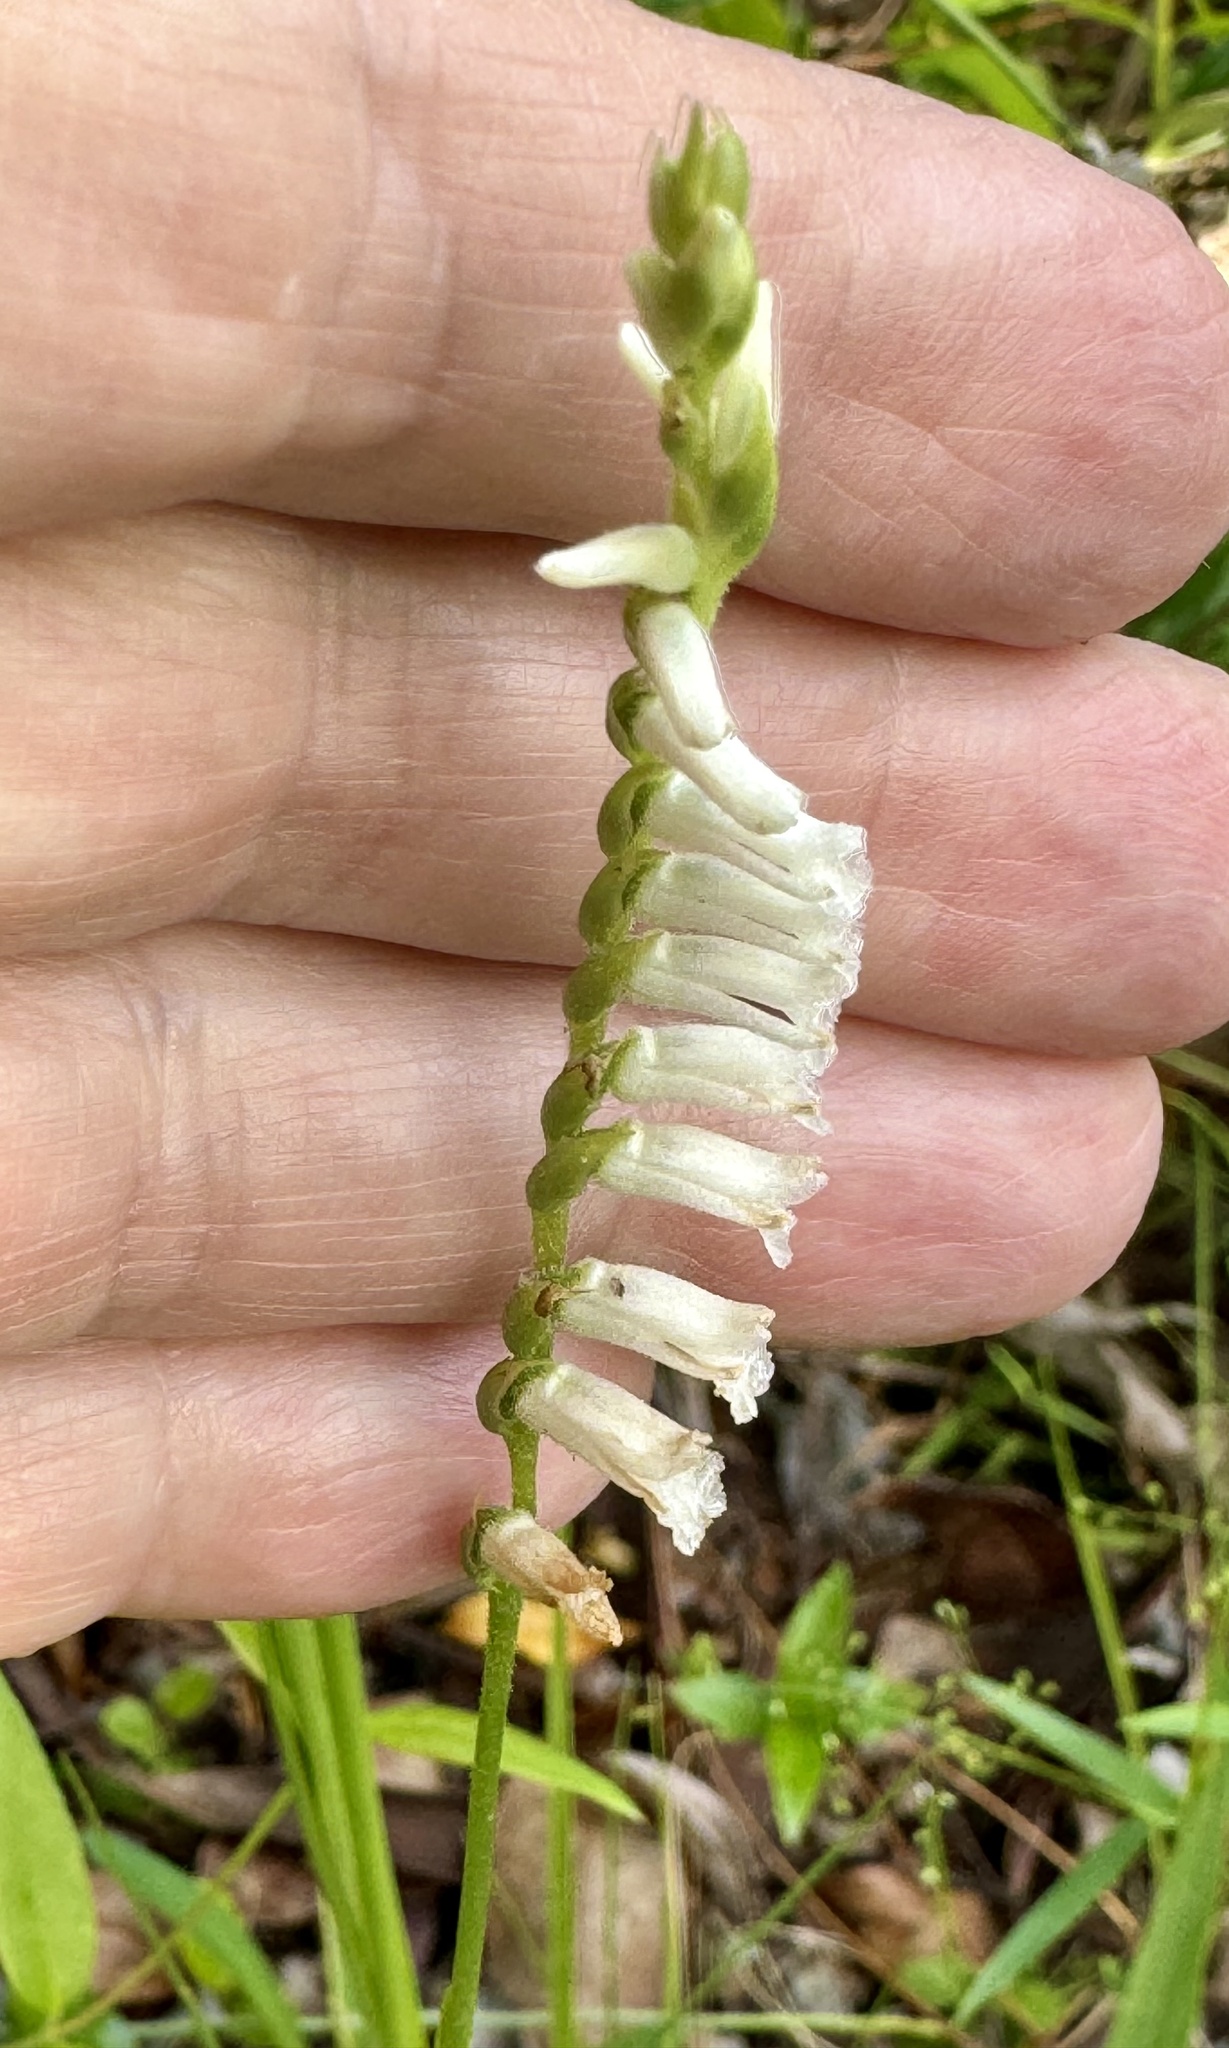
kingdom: Plantae
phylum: Tracheophyta
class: Liliopsida
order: Asparagales
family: Orchidaceae
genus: Spiranthes
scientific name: Spiranthes praecox
